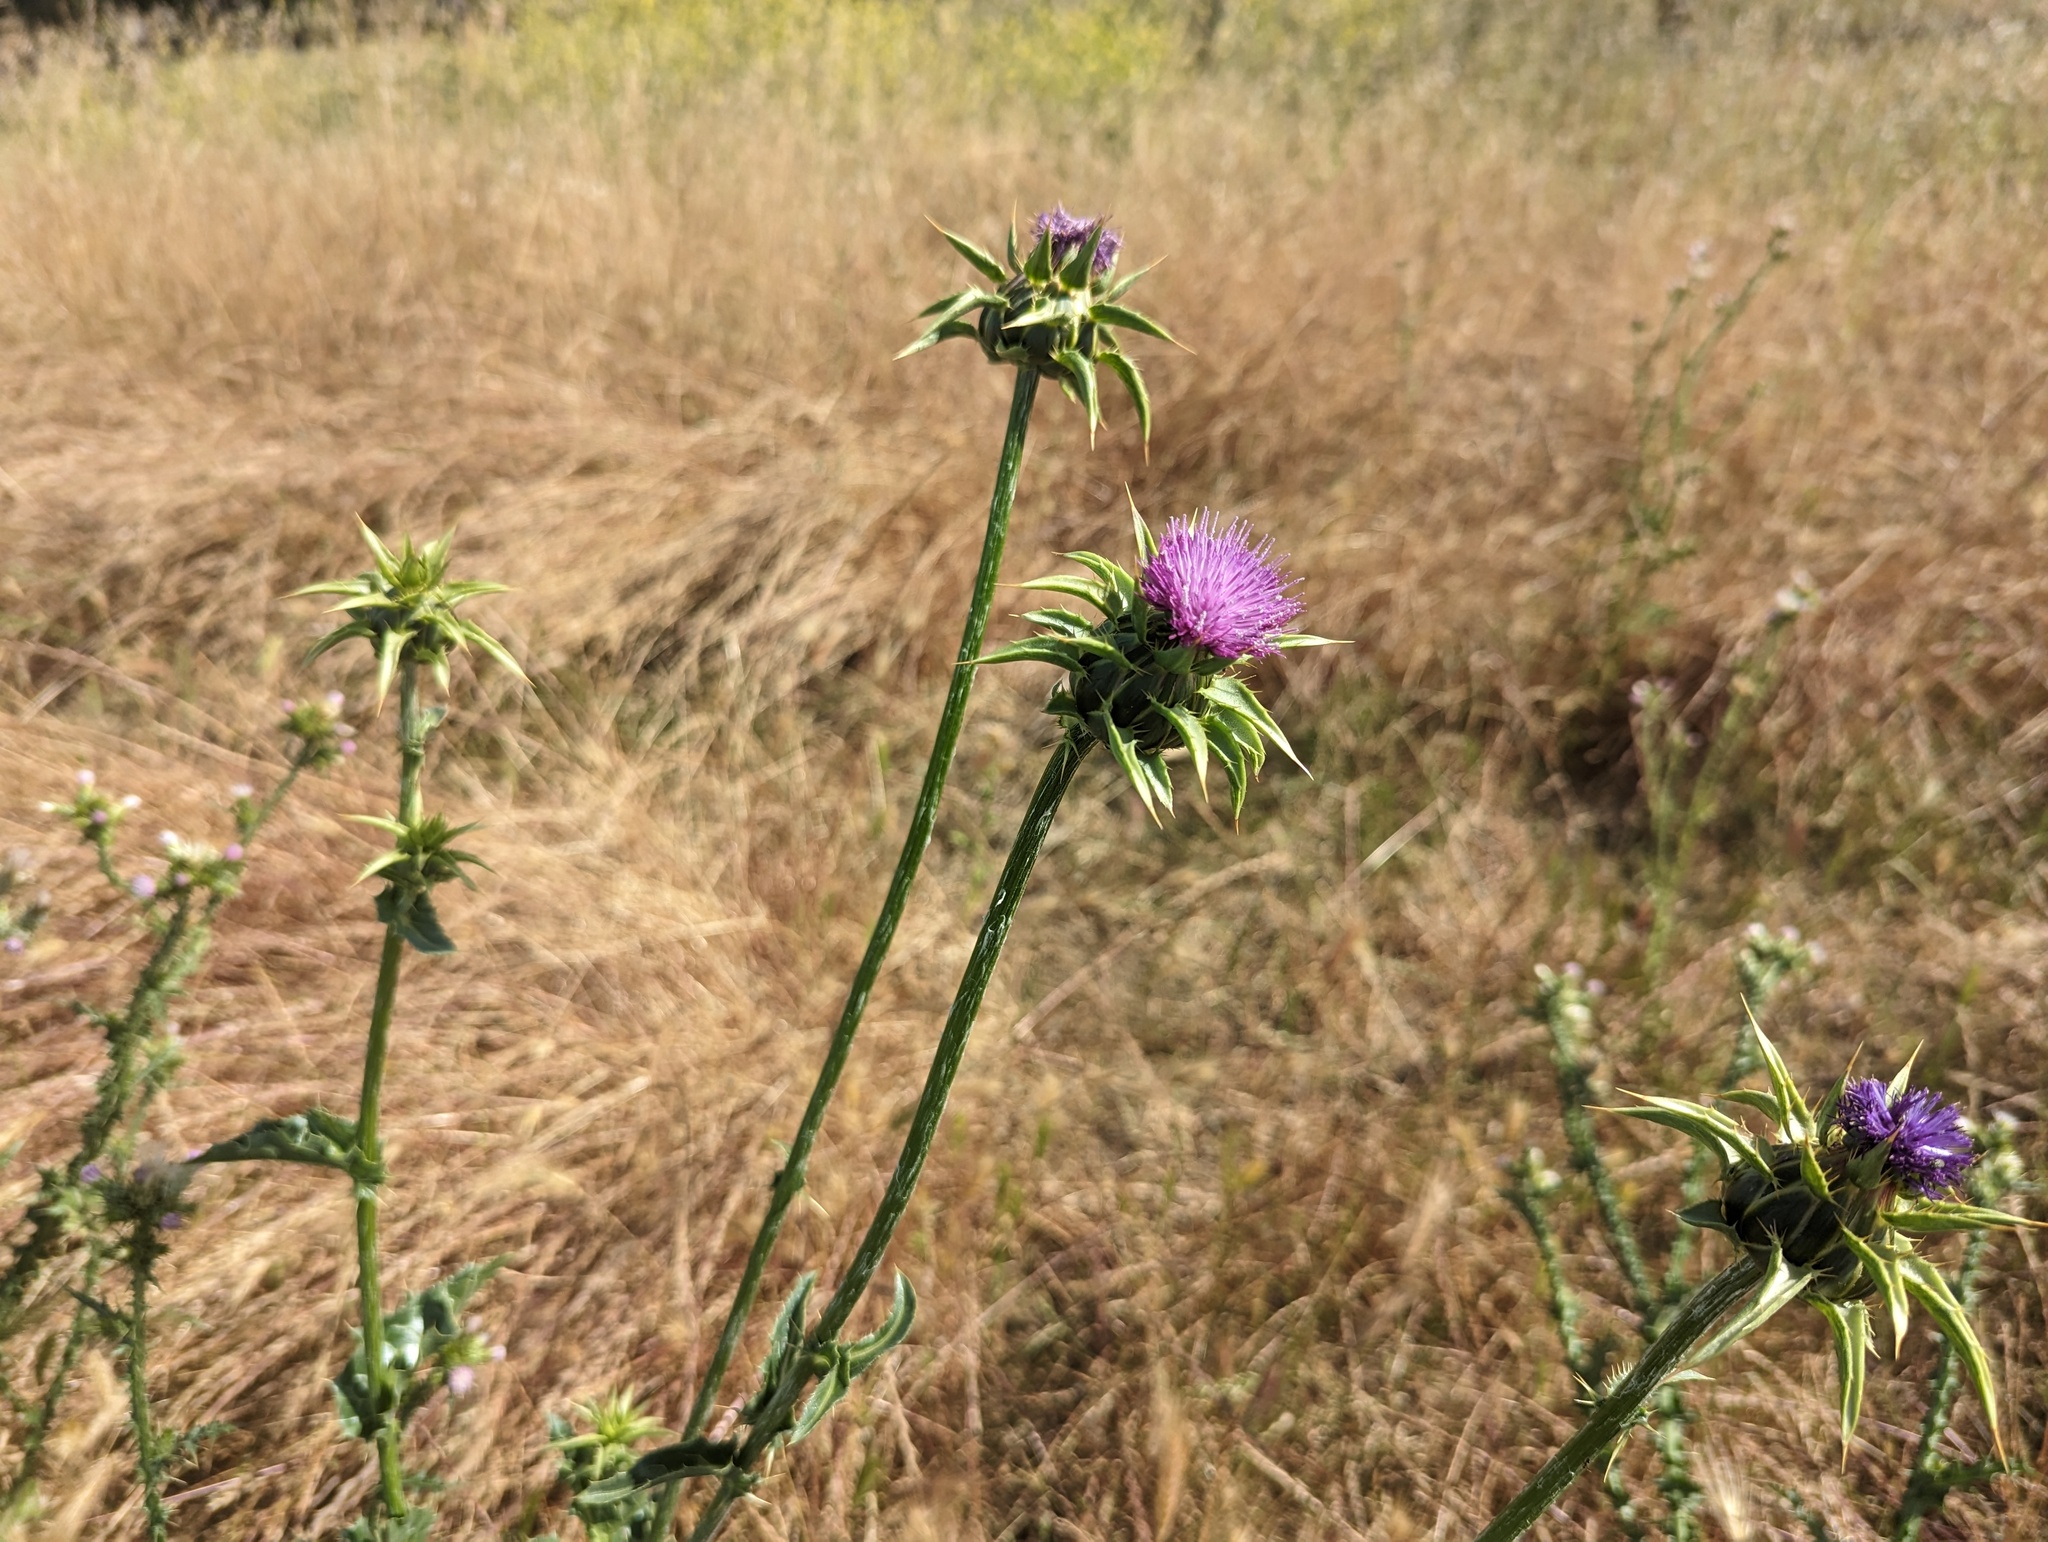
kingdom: Plantae
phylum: Tracheophyta
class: Magnoliopsida
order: Asterales
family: Asteraceae
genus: Silybum
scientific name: Silybum marianum
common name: Milk thistle
